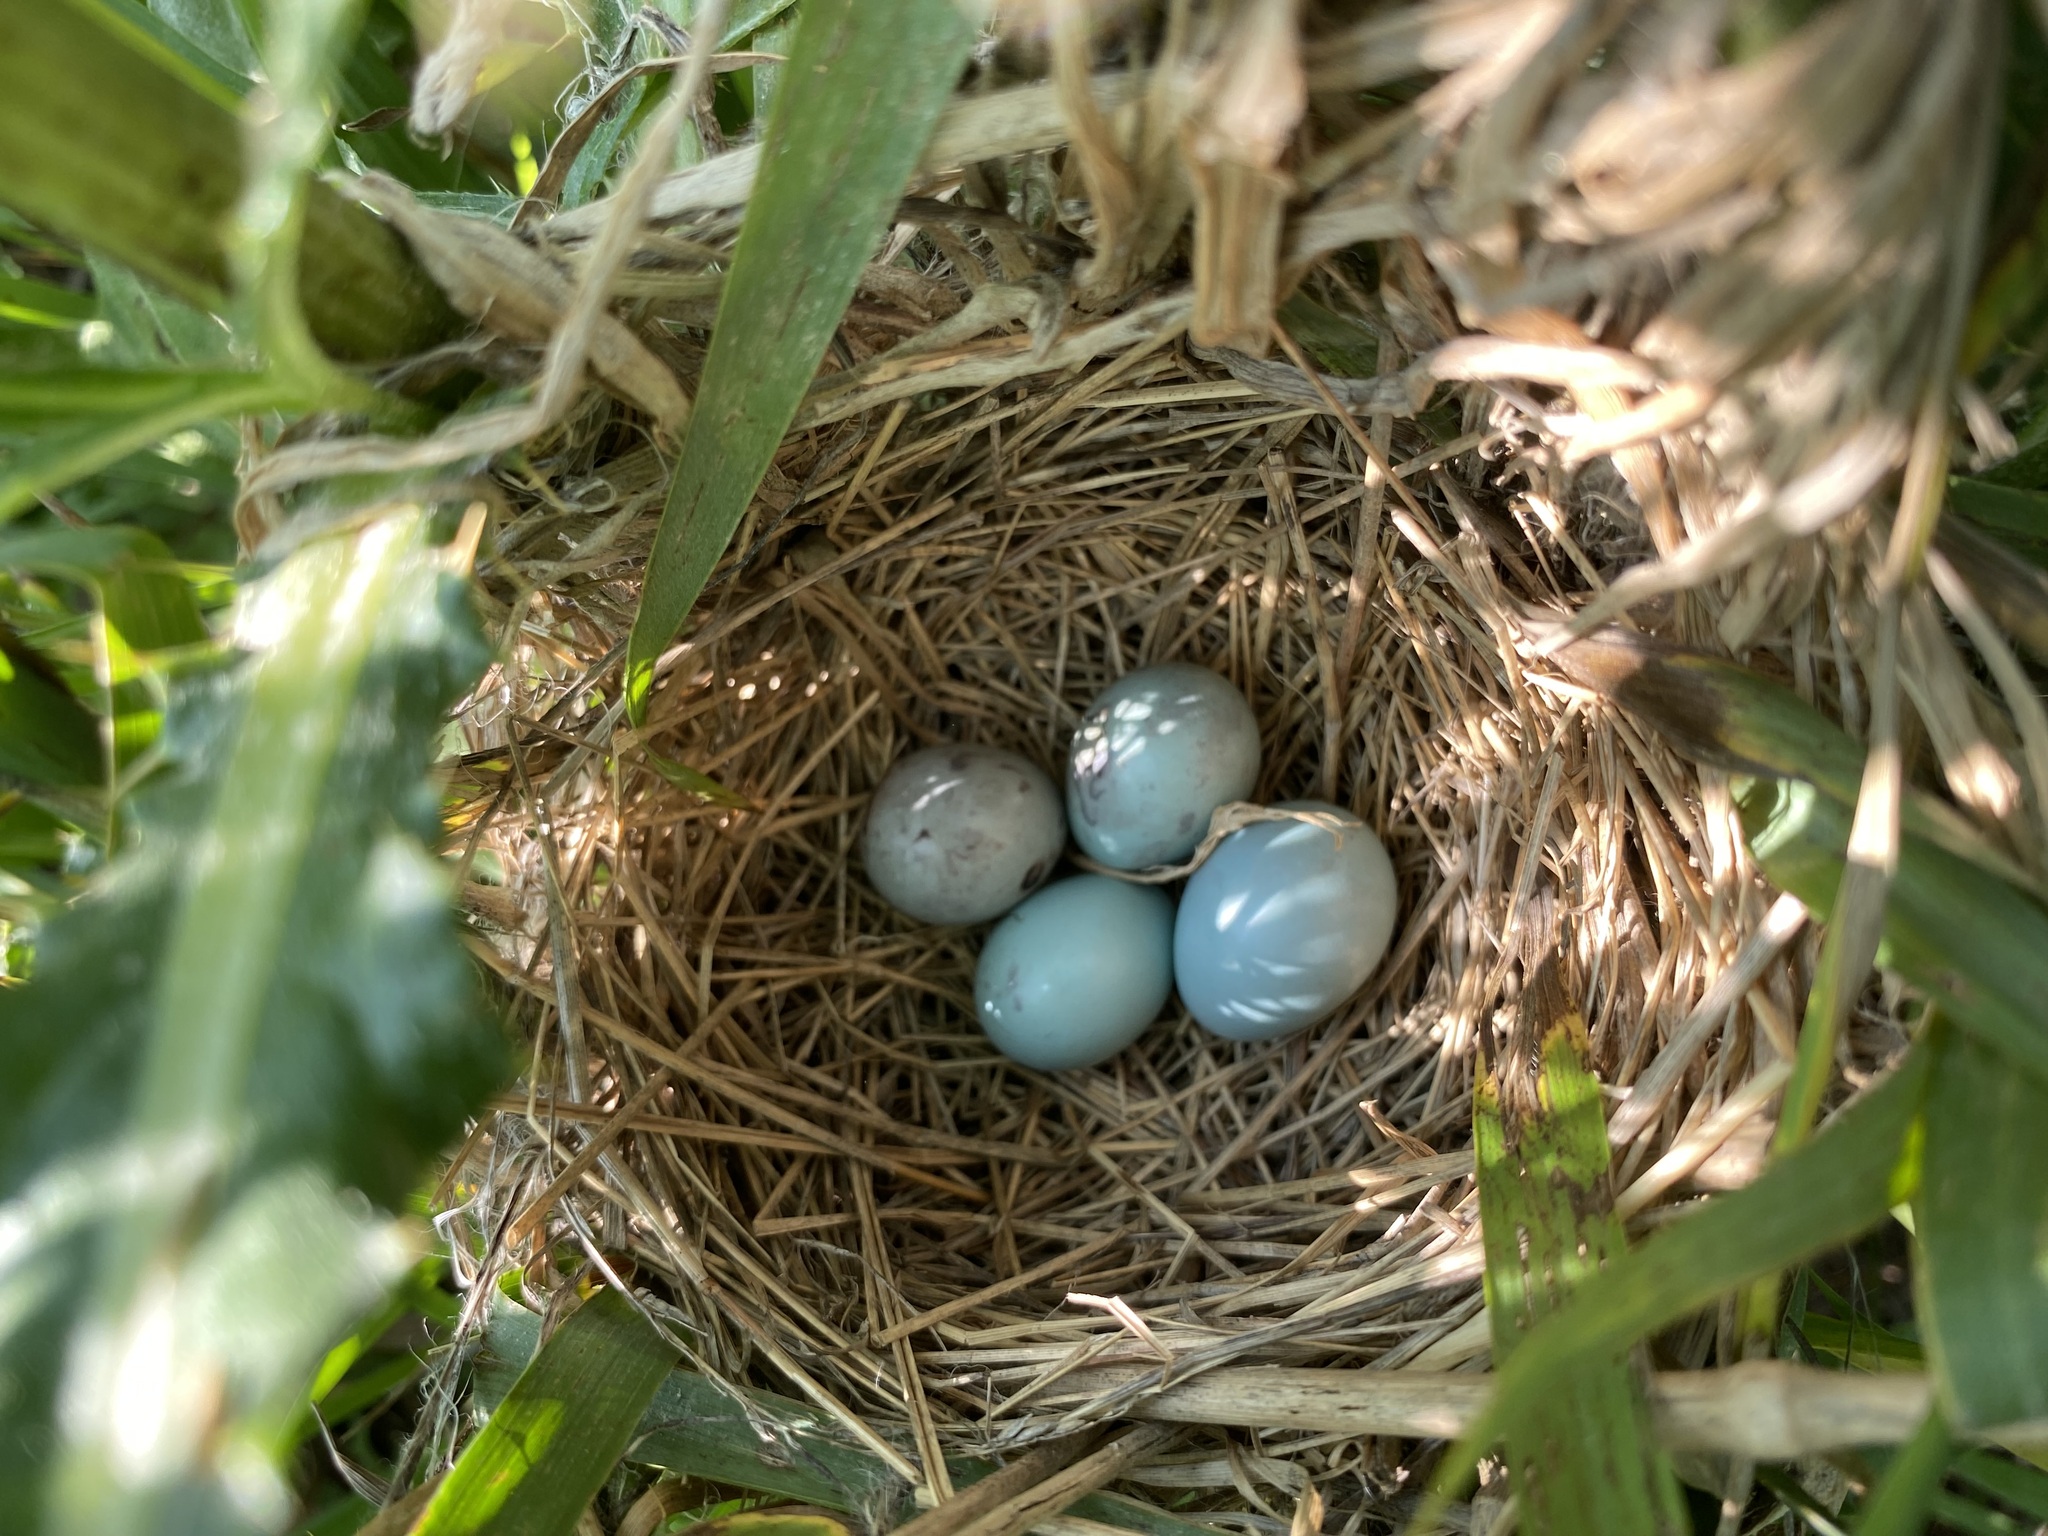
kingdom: Animalia
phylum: Chordata
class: Aves
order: Passeriformes
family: Icteridae
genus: Agelaius
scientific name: Agelaius phoeniceus
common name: Red-winged blackbird
